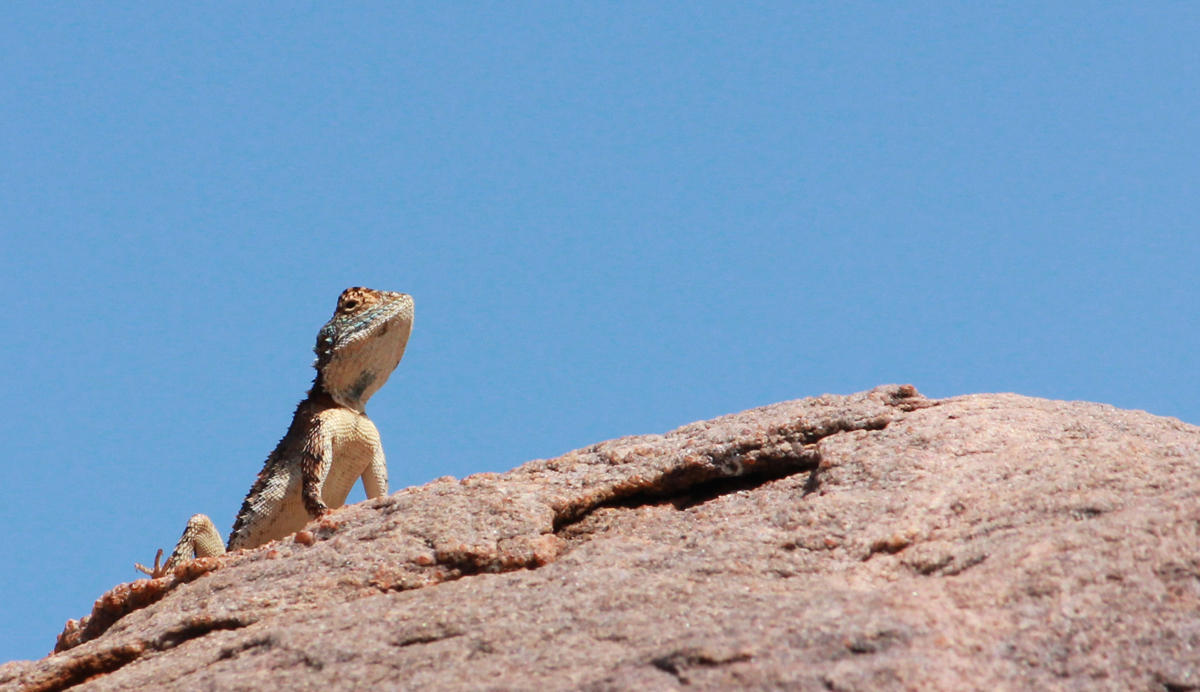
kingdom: Animalia
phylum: Chordata
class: Squamata
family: Agamidae
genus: Agama
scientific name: Agama armata
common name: Northern ground agama
